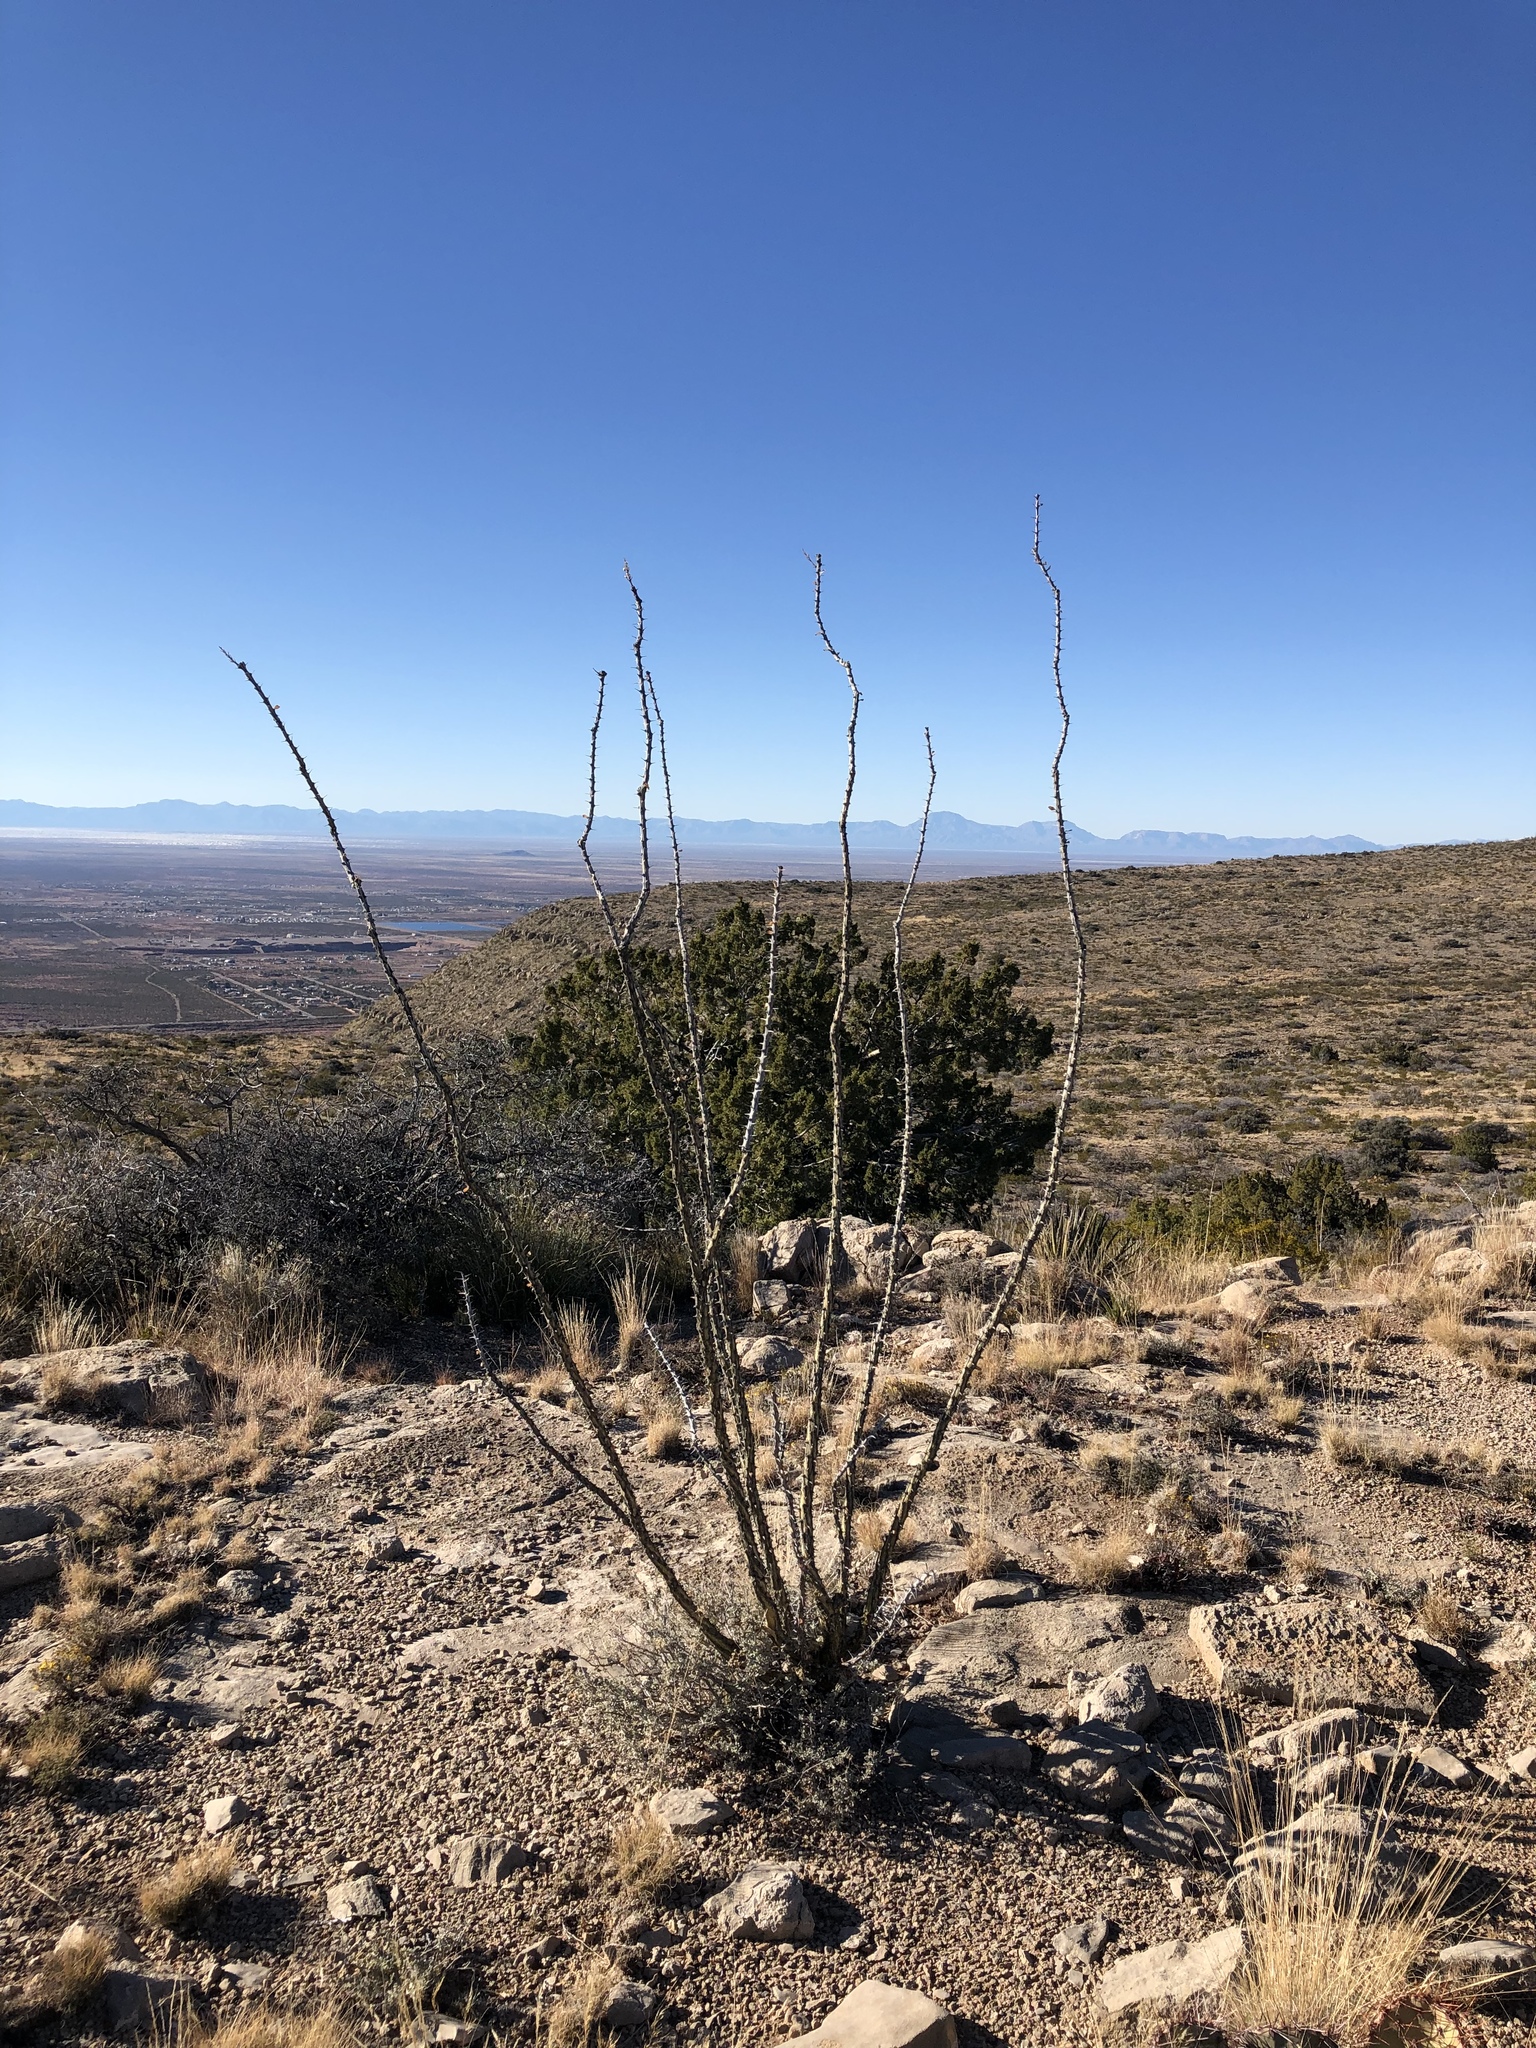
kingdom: Plantae
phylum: Tracheophyta
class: Magnoliopsida
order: Ericales
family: Fouquieriaceae
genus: Fouquieria
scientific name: Fouquieria splendens
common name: Vine-cactus
